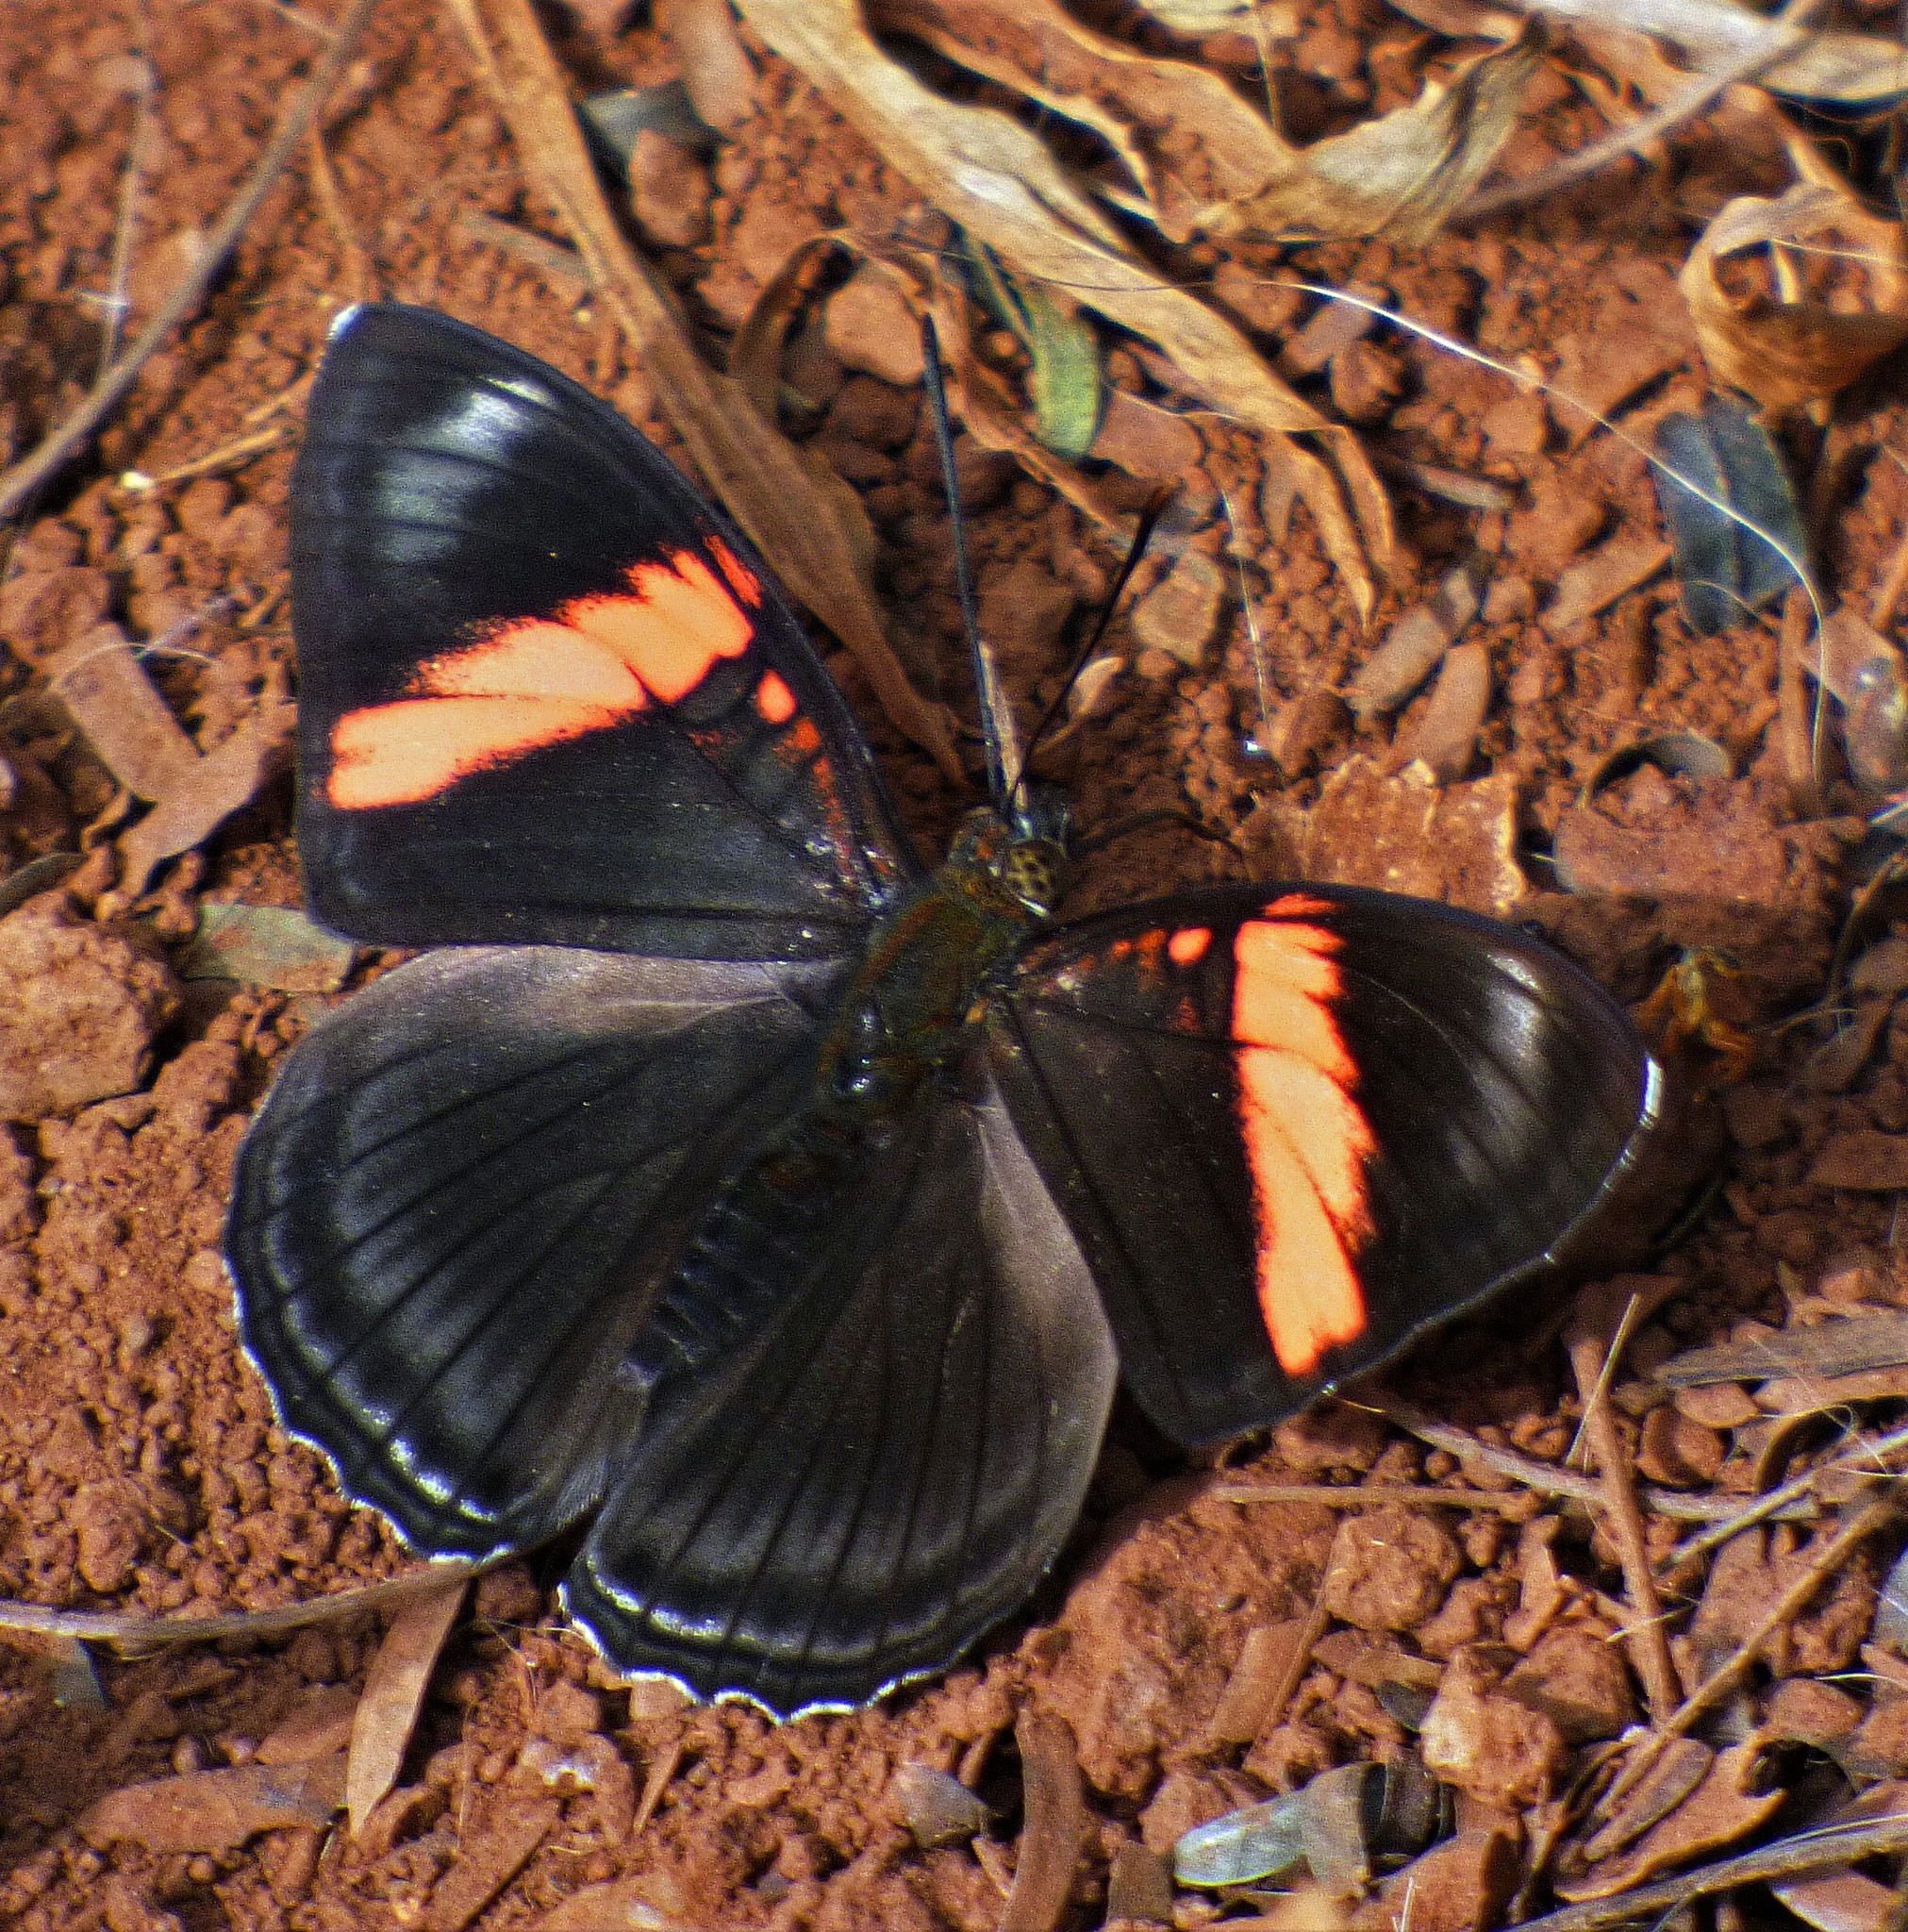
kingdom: Animalia
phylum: Arthropoda
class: Insecta
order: Lepidoptera
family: Nymphalidae
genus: Limenitis
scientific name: Limenitis isis
